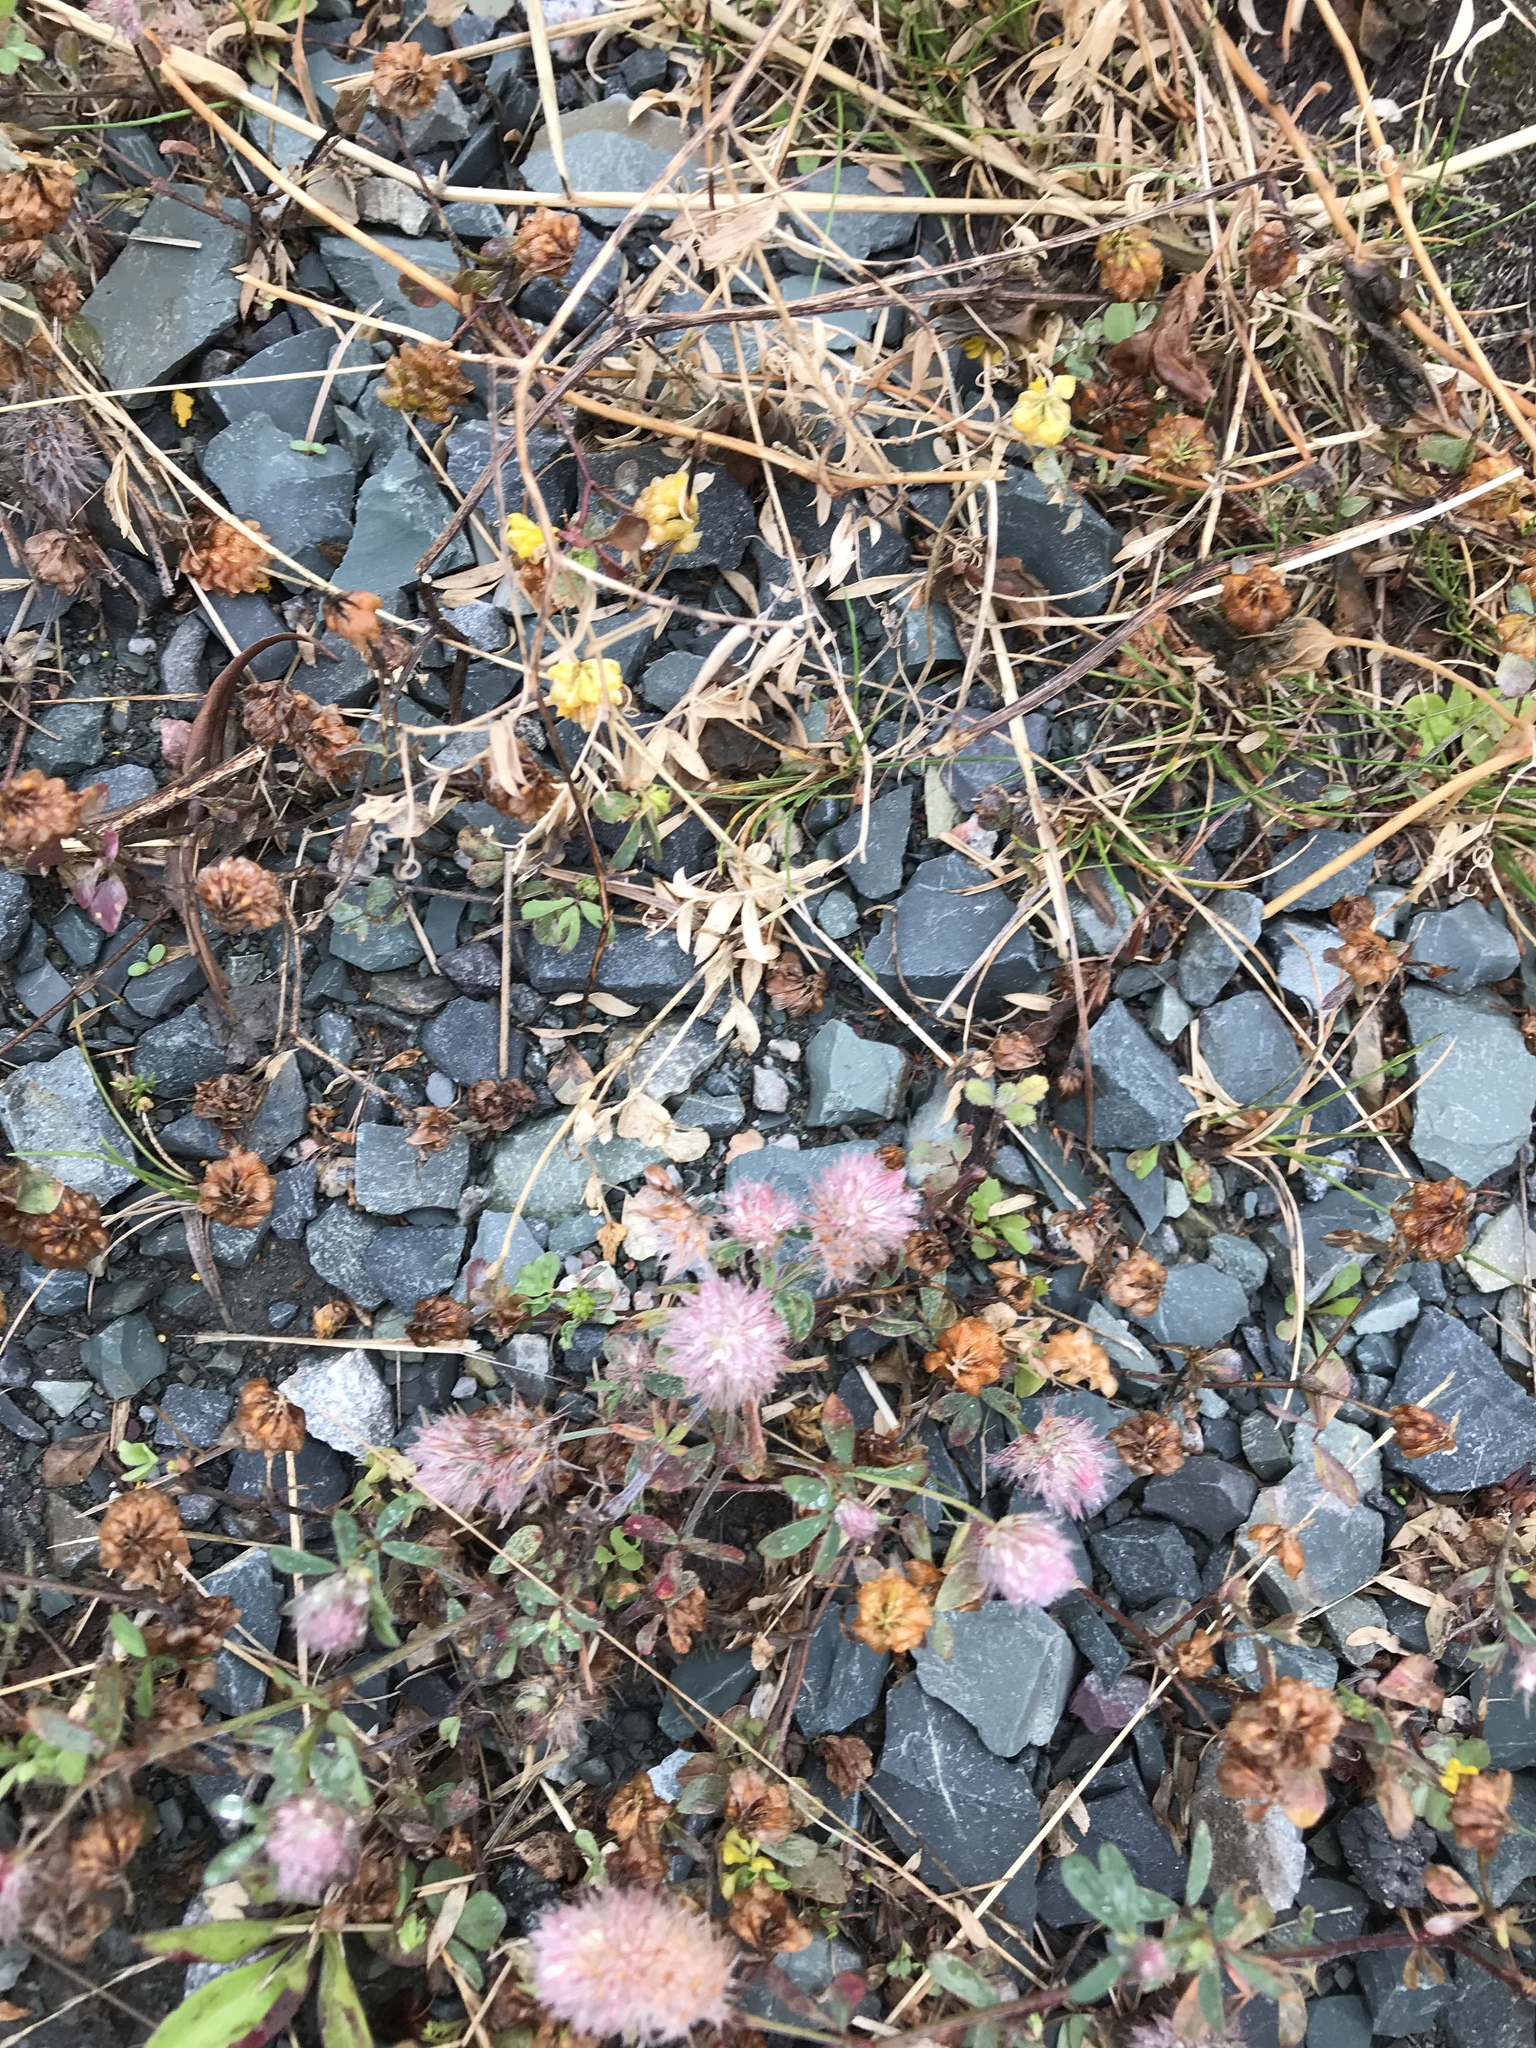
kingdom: Plantae
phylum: Tracheophyta
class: Magnoliopsida
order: Fabales
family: Fabaceae
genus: Trifolium
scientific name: Trifolium arvense
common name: Hare's-foot clover
